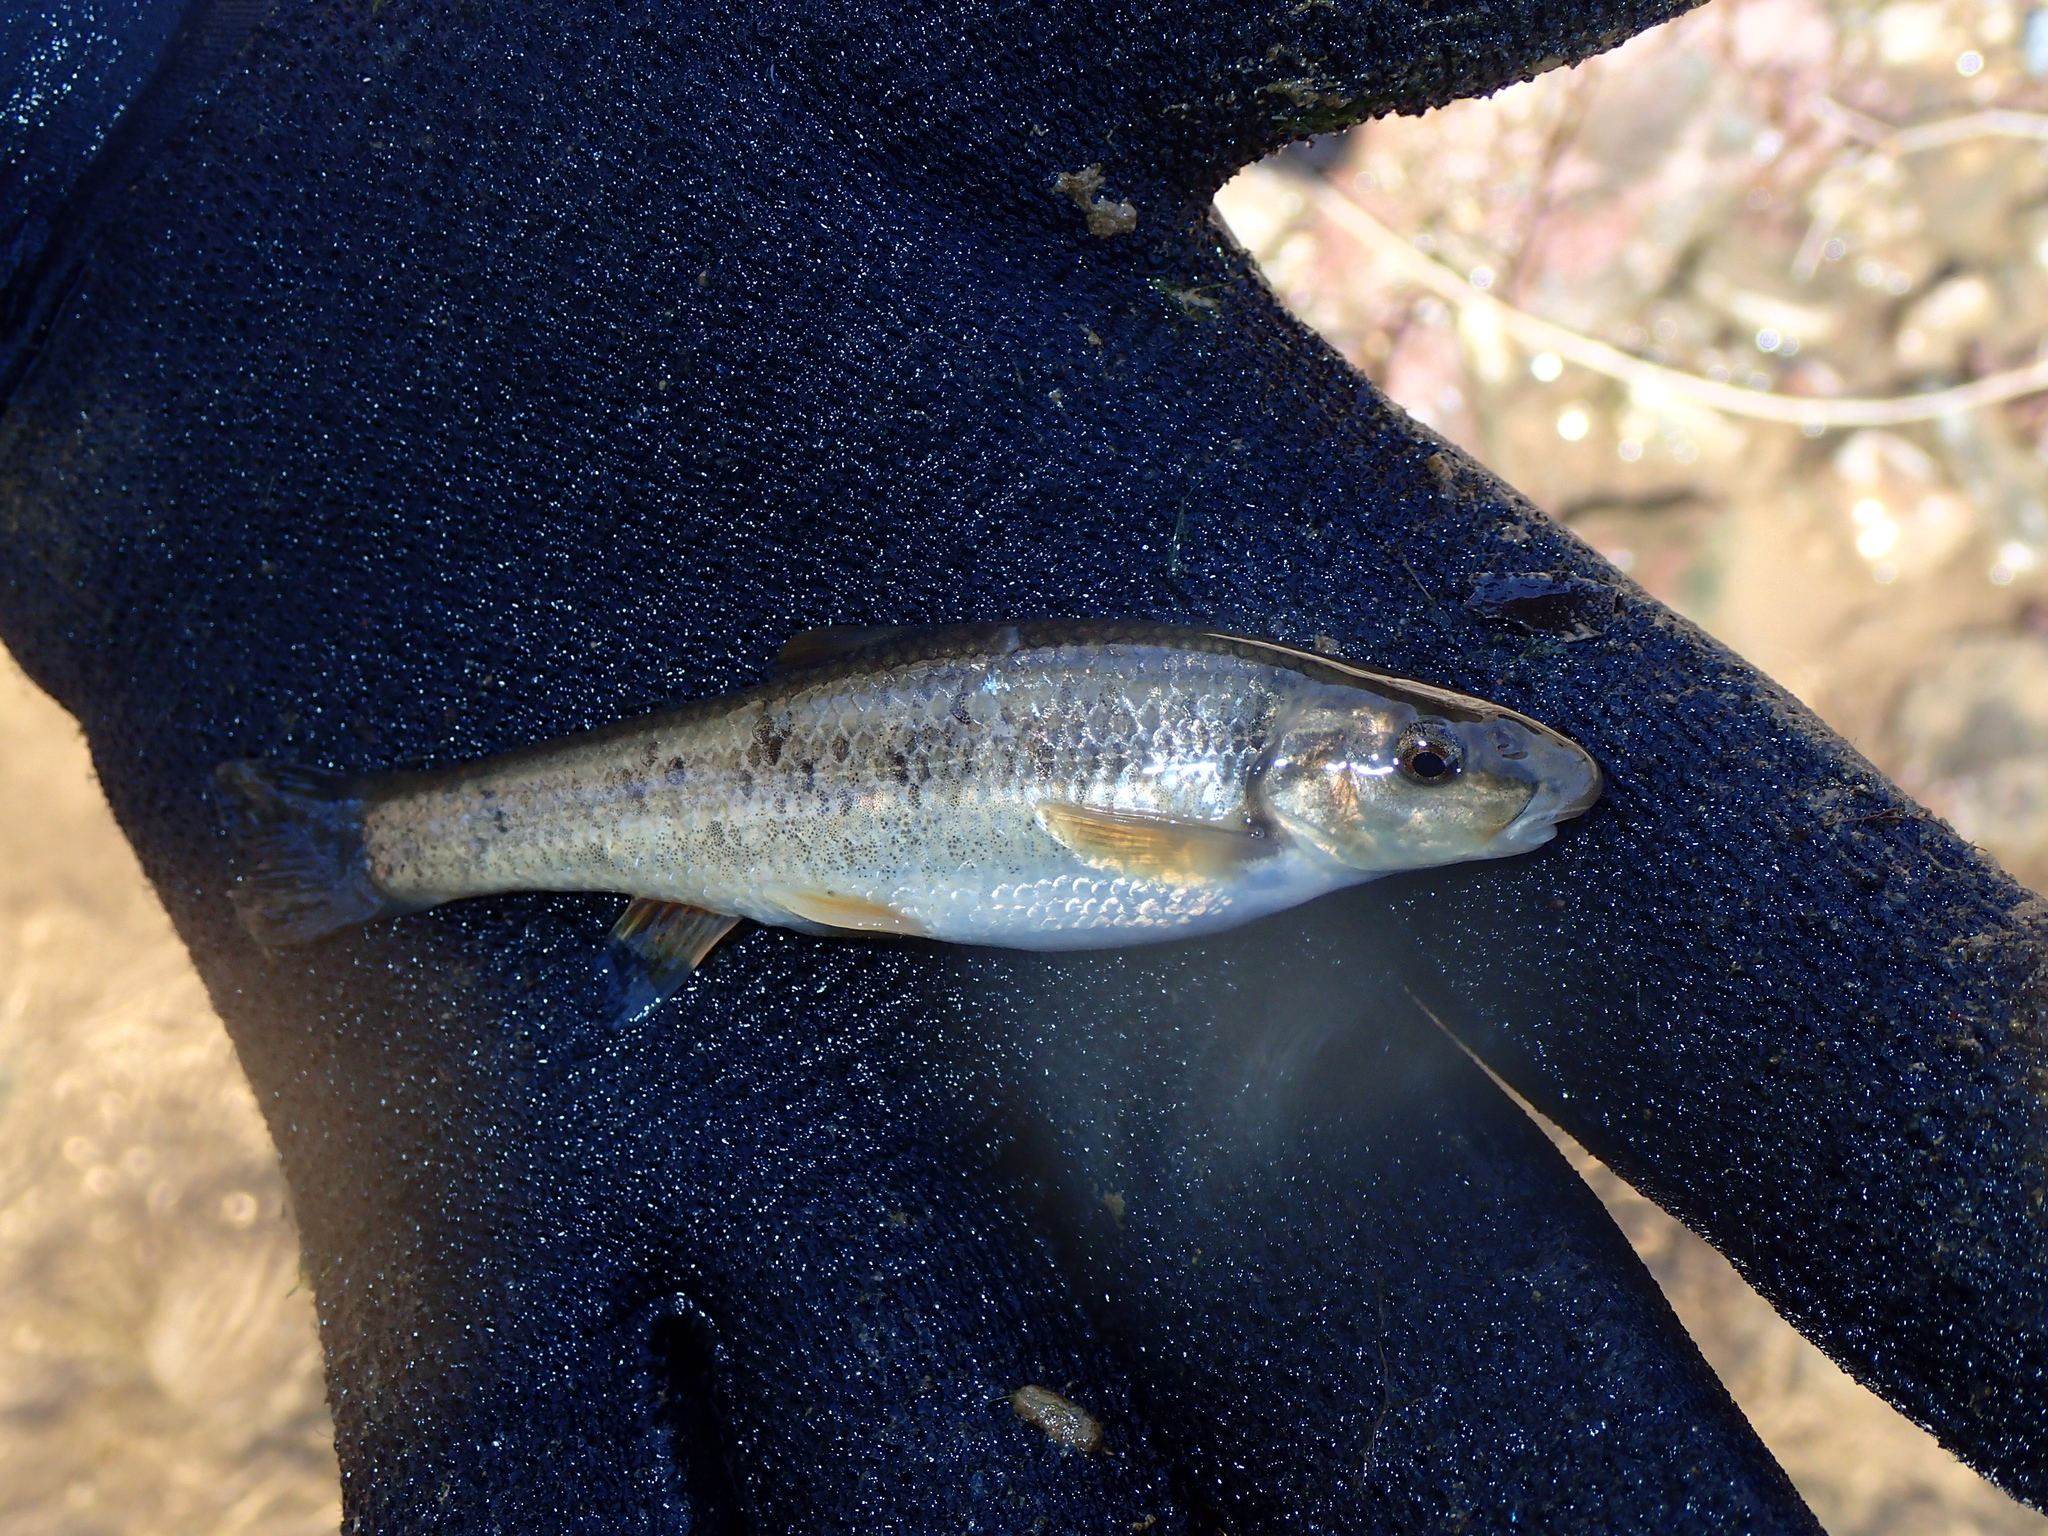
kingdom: Animalia
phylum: Chordata
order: Cypriniformes
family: Cyprinidae
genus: Campostoma
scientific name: Campostoma anomalum
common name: Central stoneroller
